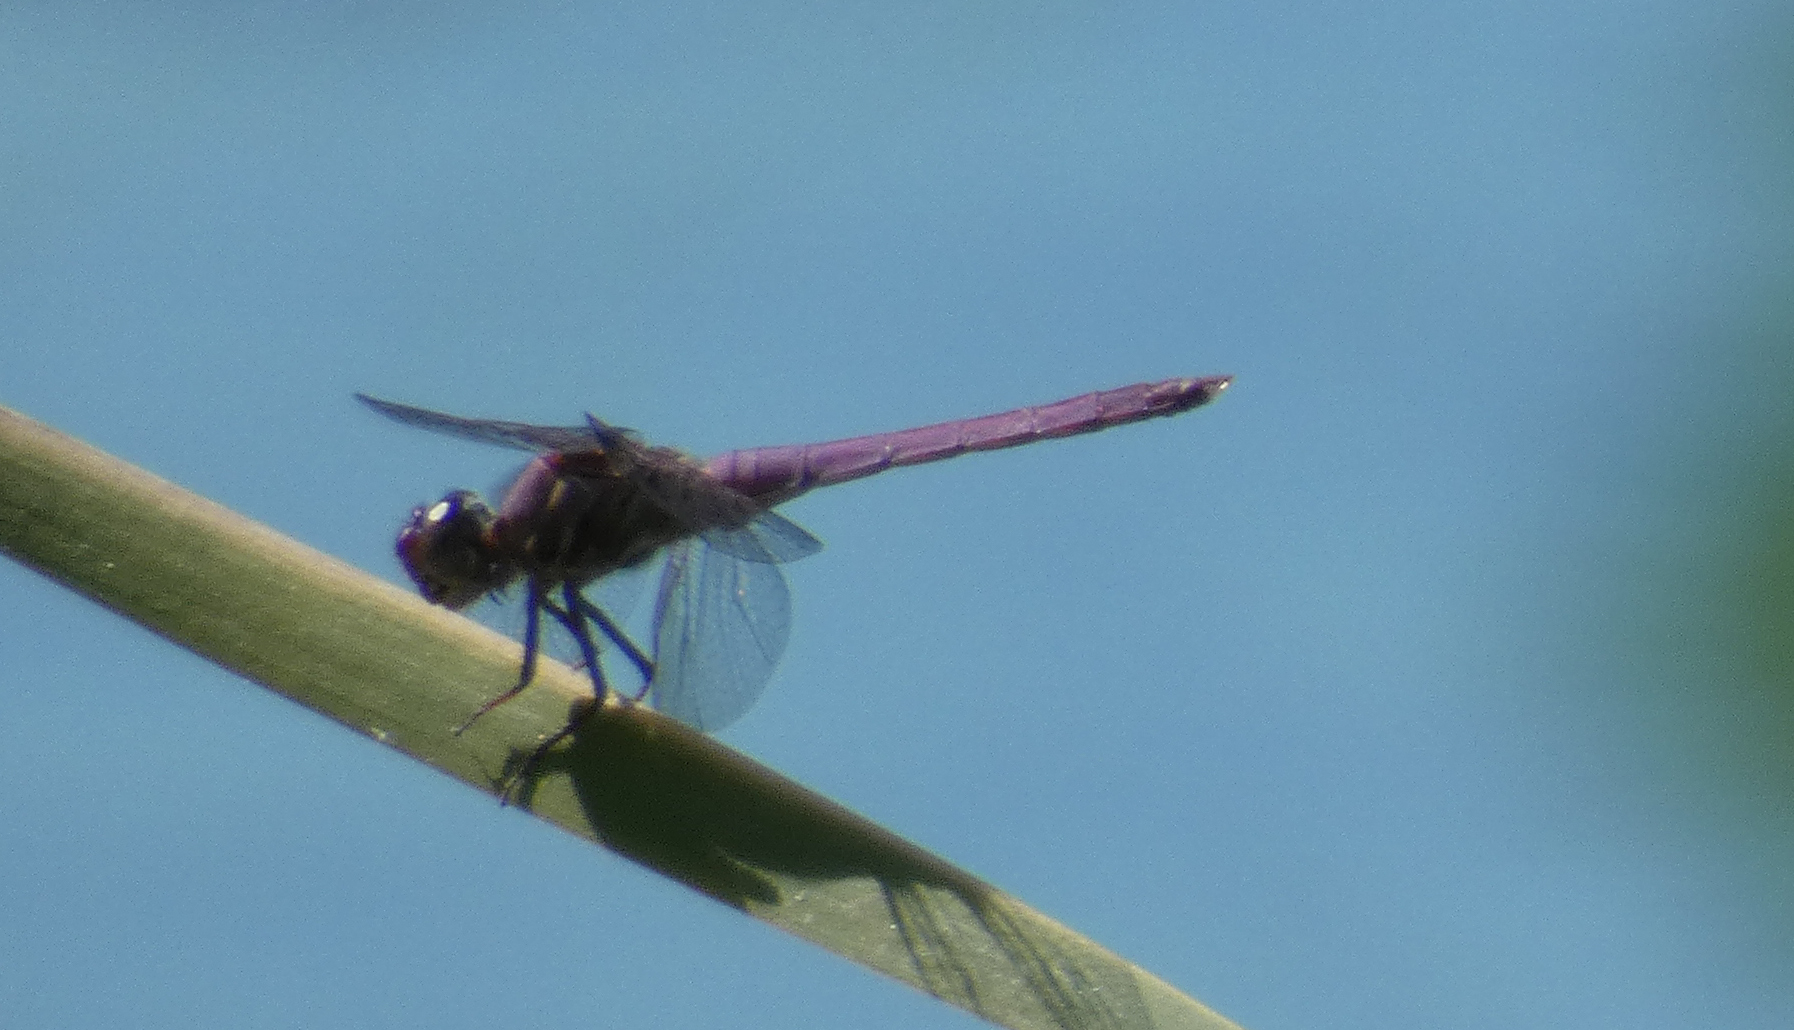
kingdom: Animalia
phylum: Arthropoda
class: Insecta
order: Odonata
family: Libellulidae
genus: Orthemis
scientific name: Orthemis ferruginea
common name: Roseate skimmer
